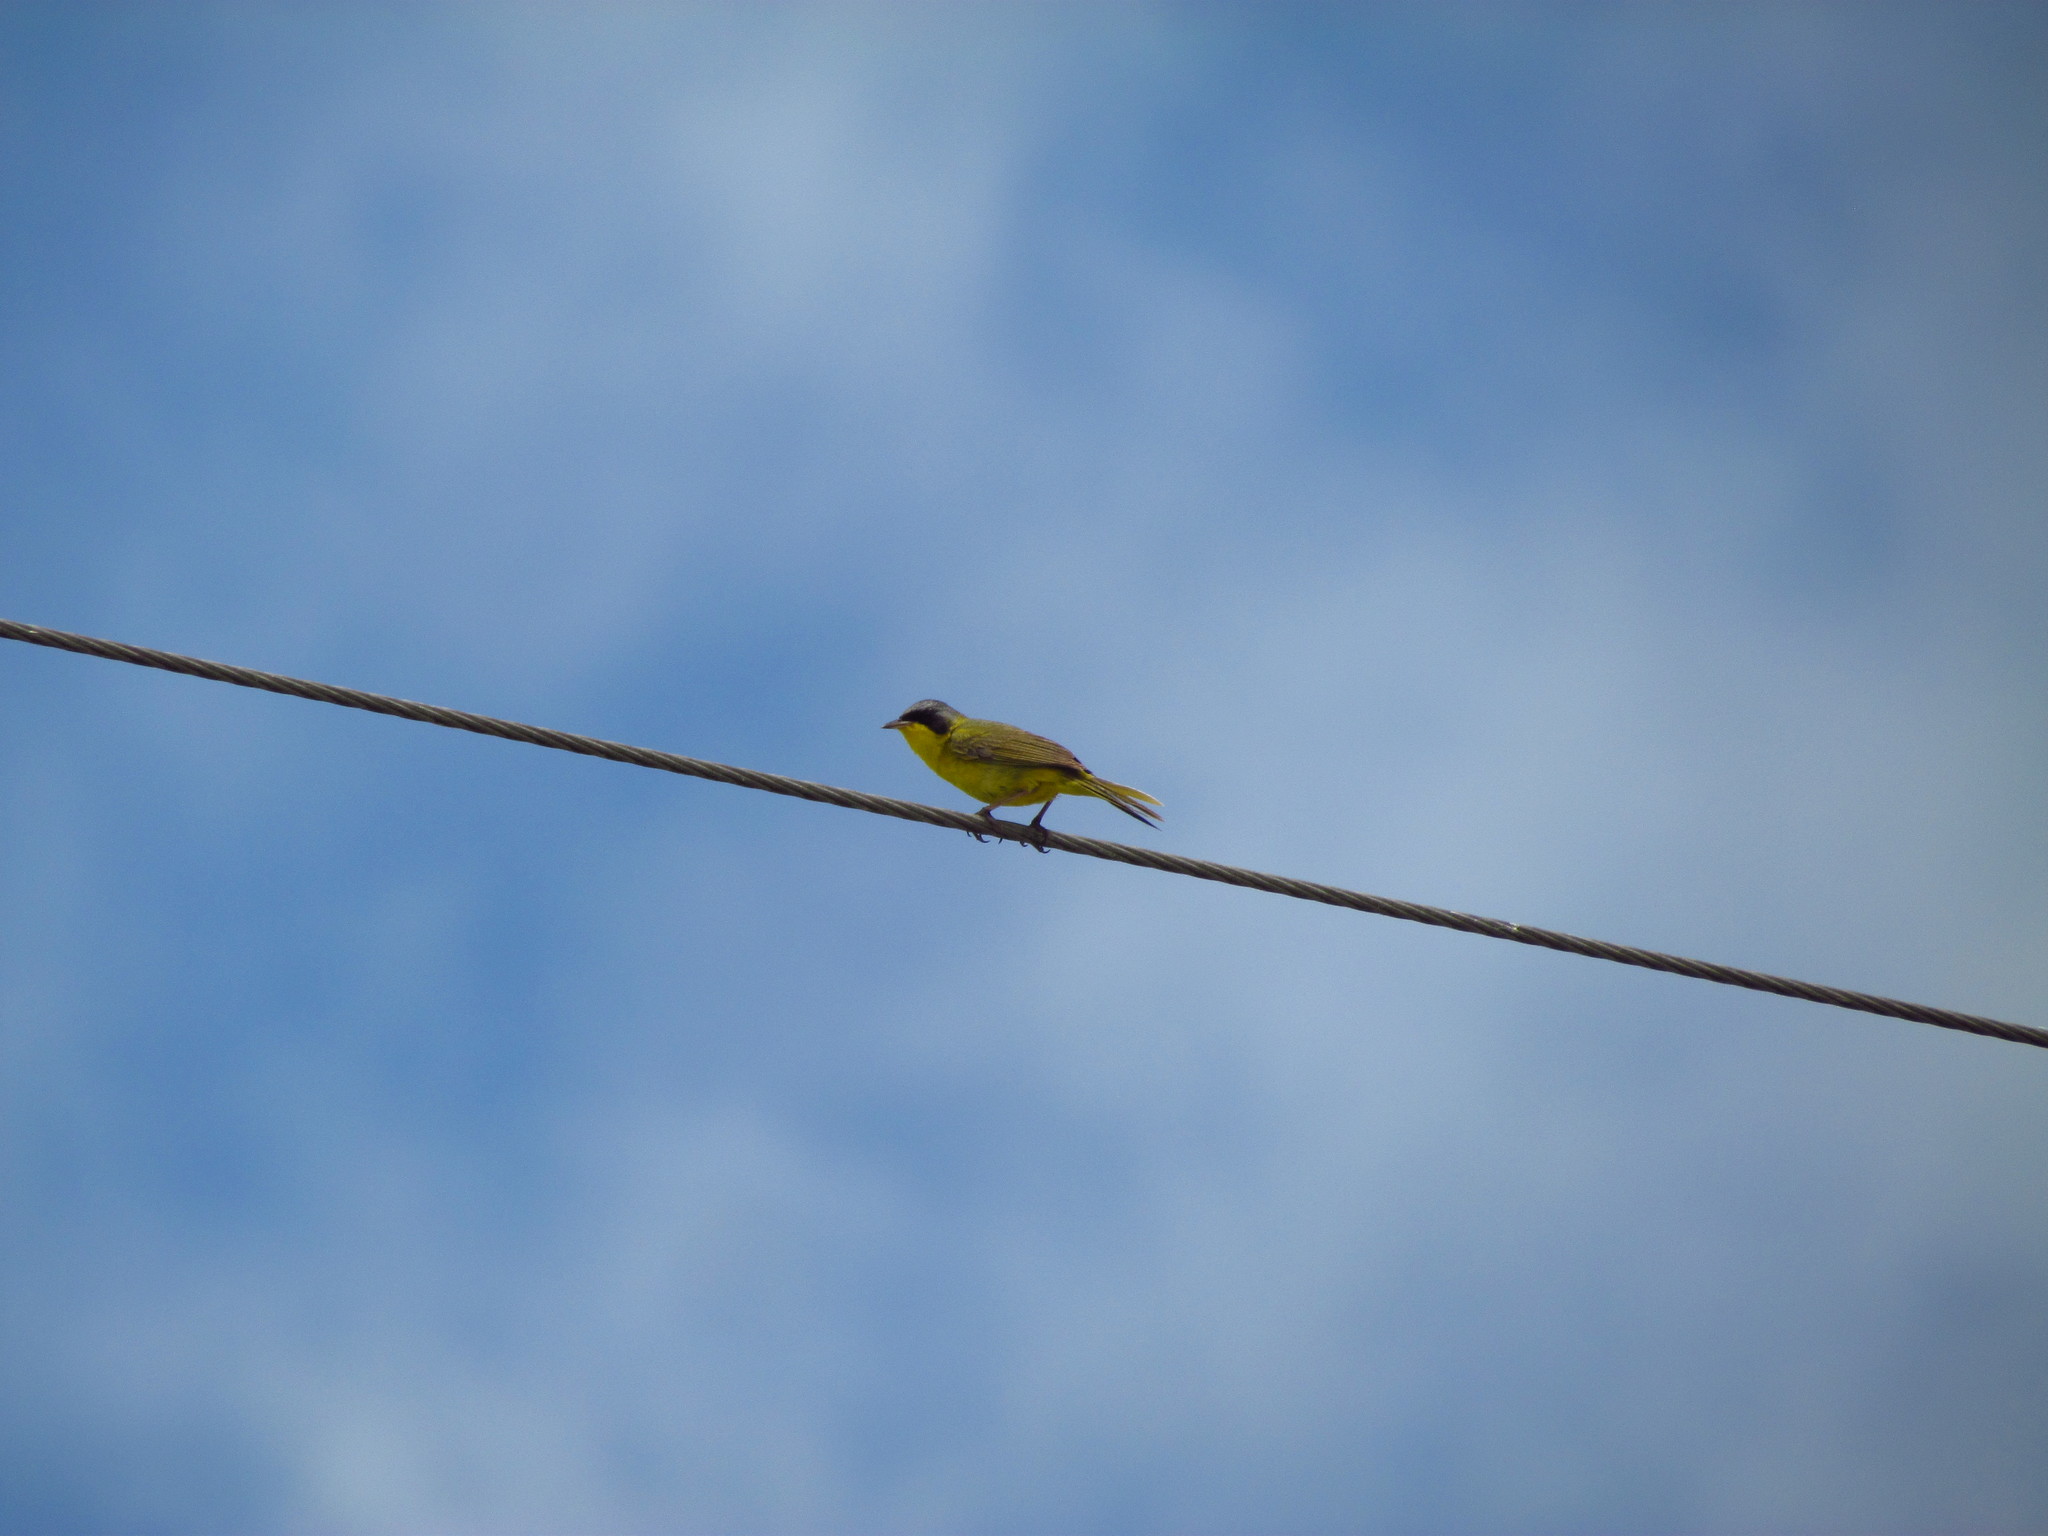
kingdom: Animalia
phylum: Chordata
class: Aves
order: Passeriformes
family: Parulidae
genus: Geothlypis
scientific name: Geothlypis velata
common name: Southern yellowthroat
